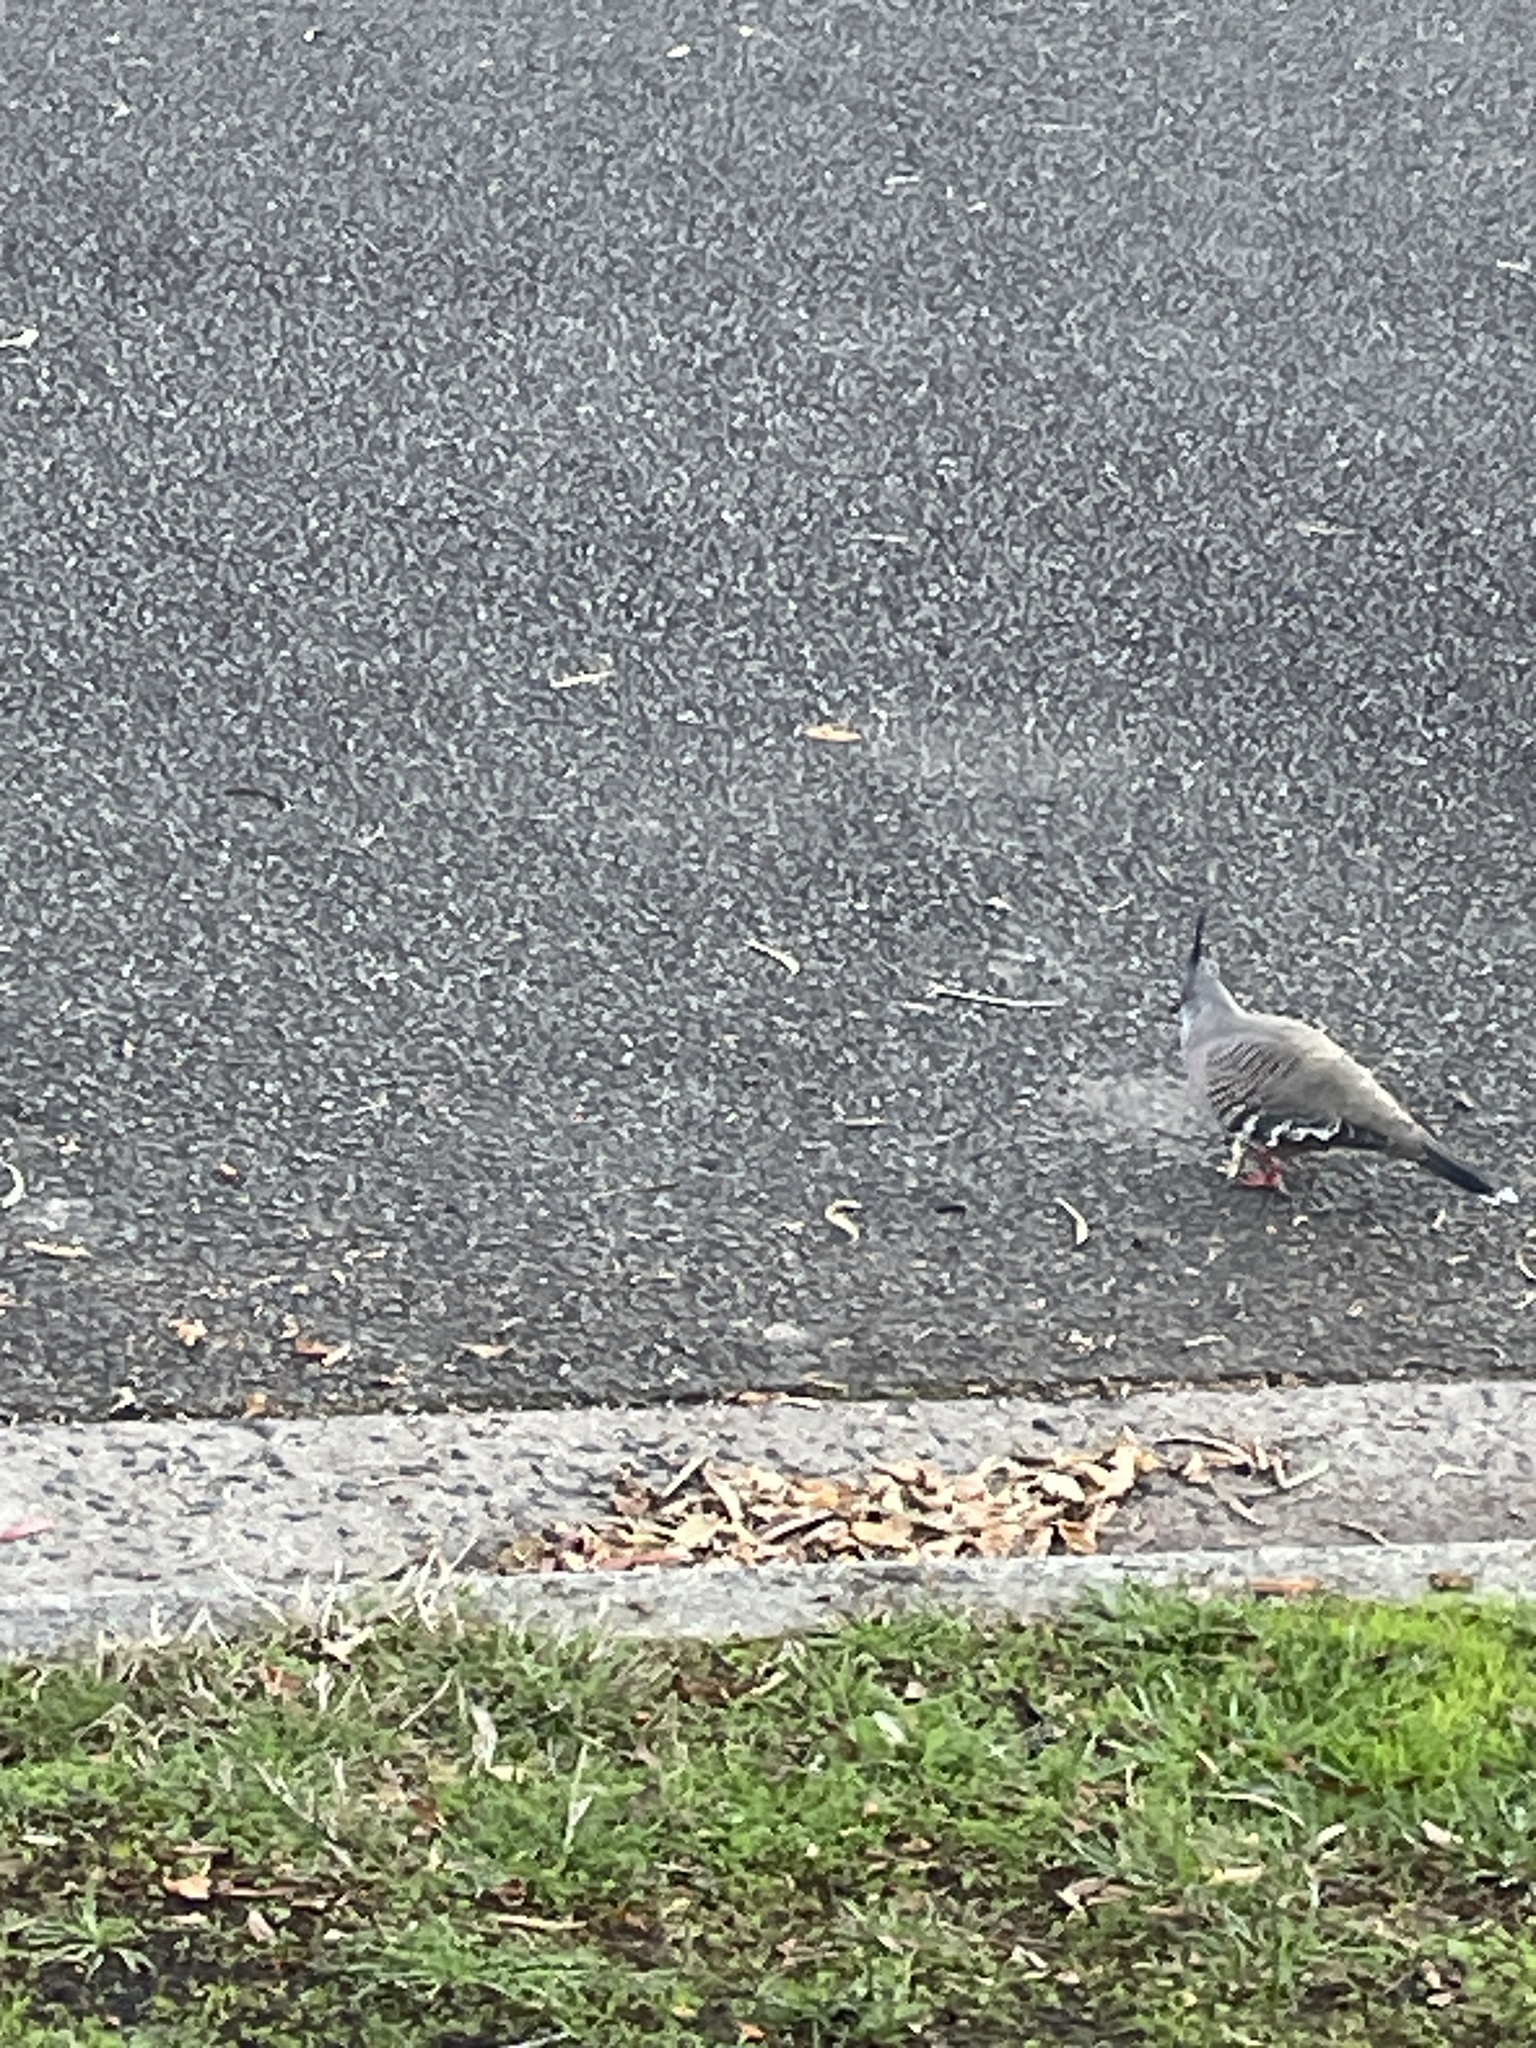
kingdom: Animalia
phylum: Chordata
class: Aves
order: Columbiformes
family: Columbidae
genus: Ocyphaps
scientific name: Ocyphaps lophotes
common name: Crested pigeon
